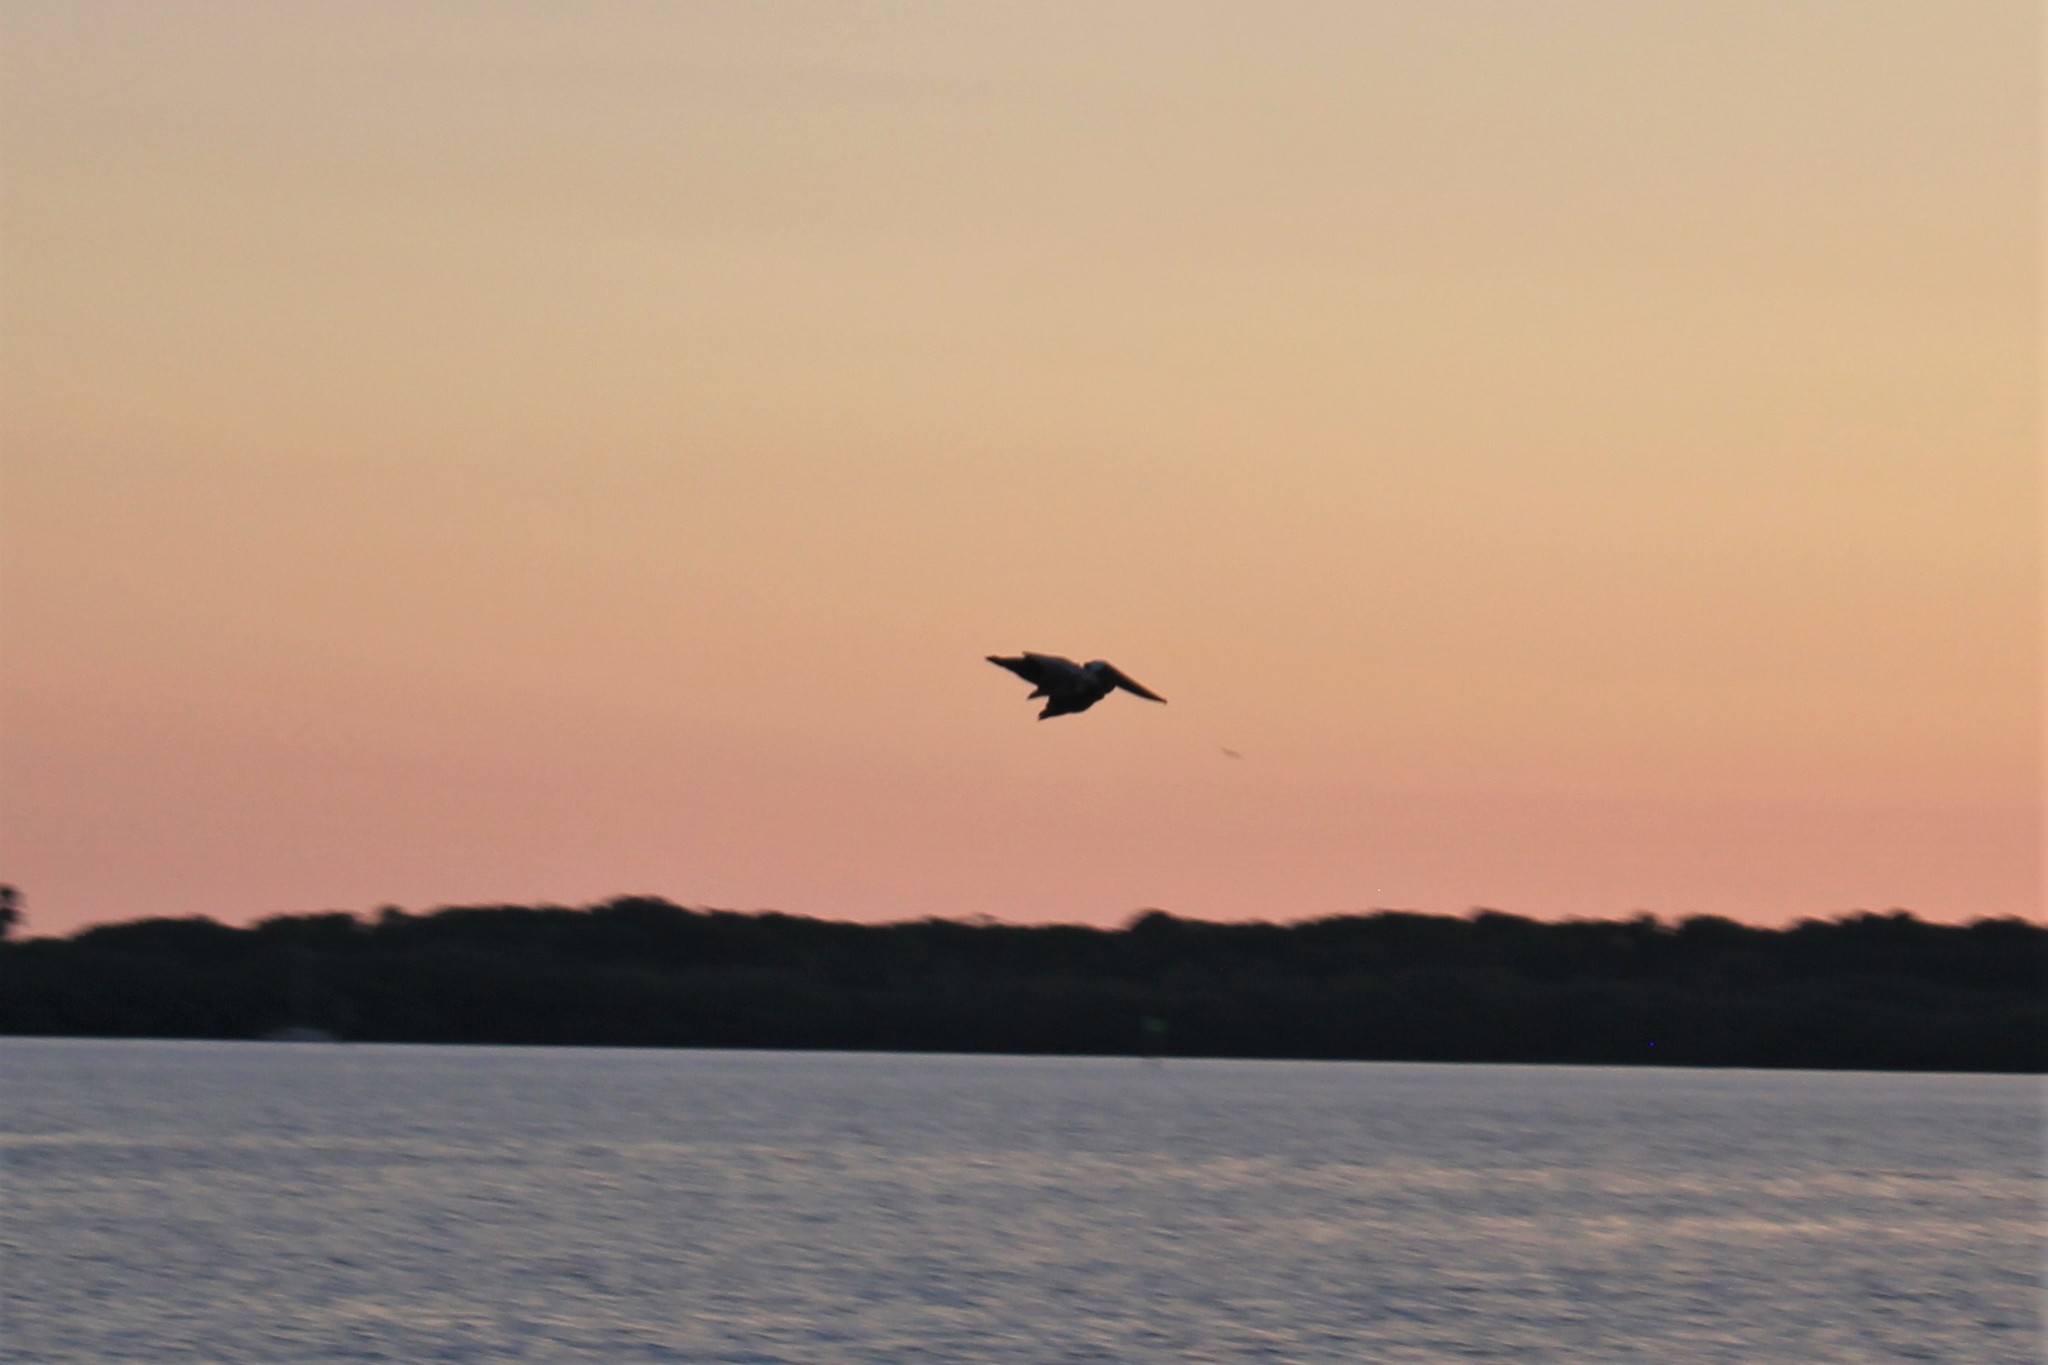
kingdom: Animalia
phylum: Chordata
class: Aves
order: Pelecaniformes
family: Pelecanidae
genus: Pelecanus
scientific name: Pelecanus occidentalis
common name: Brown pelican
